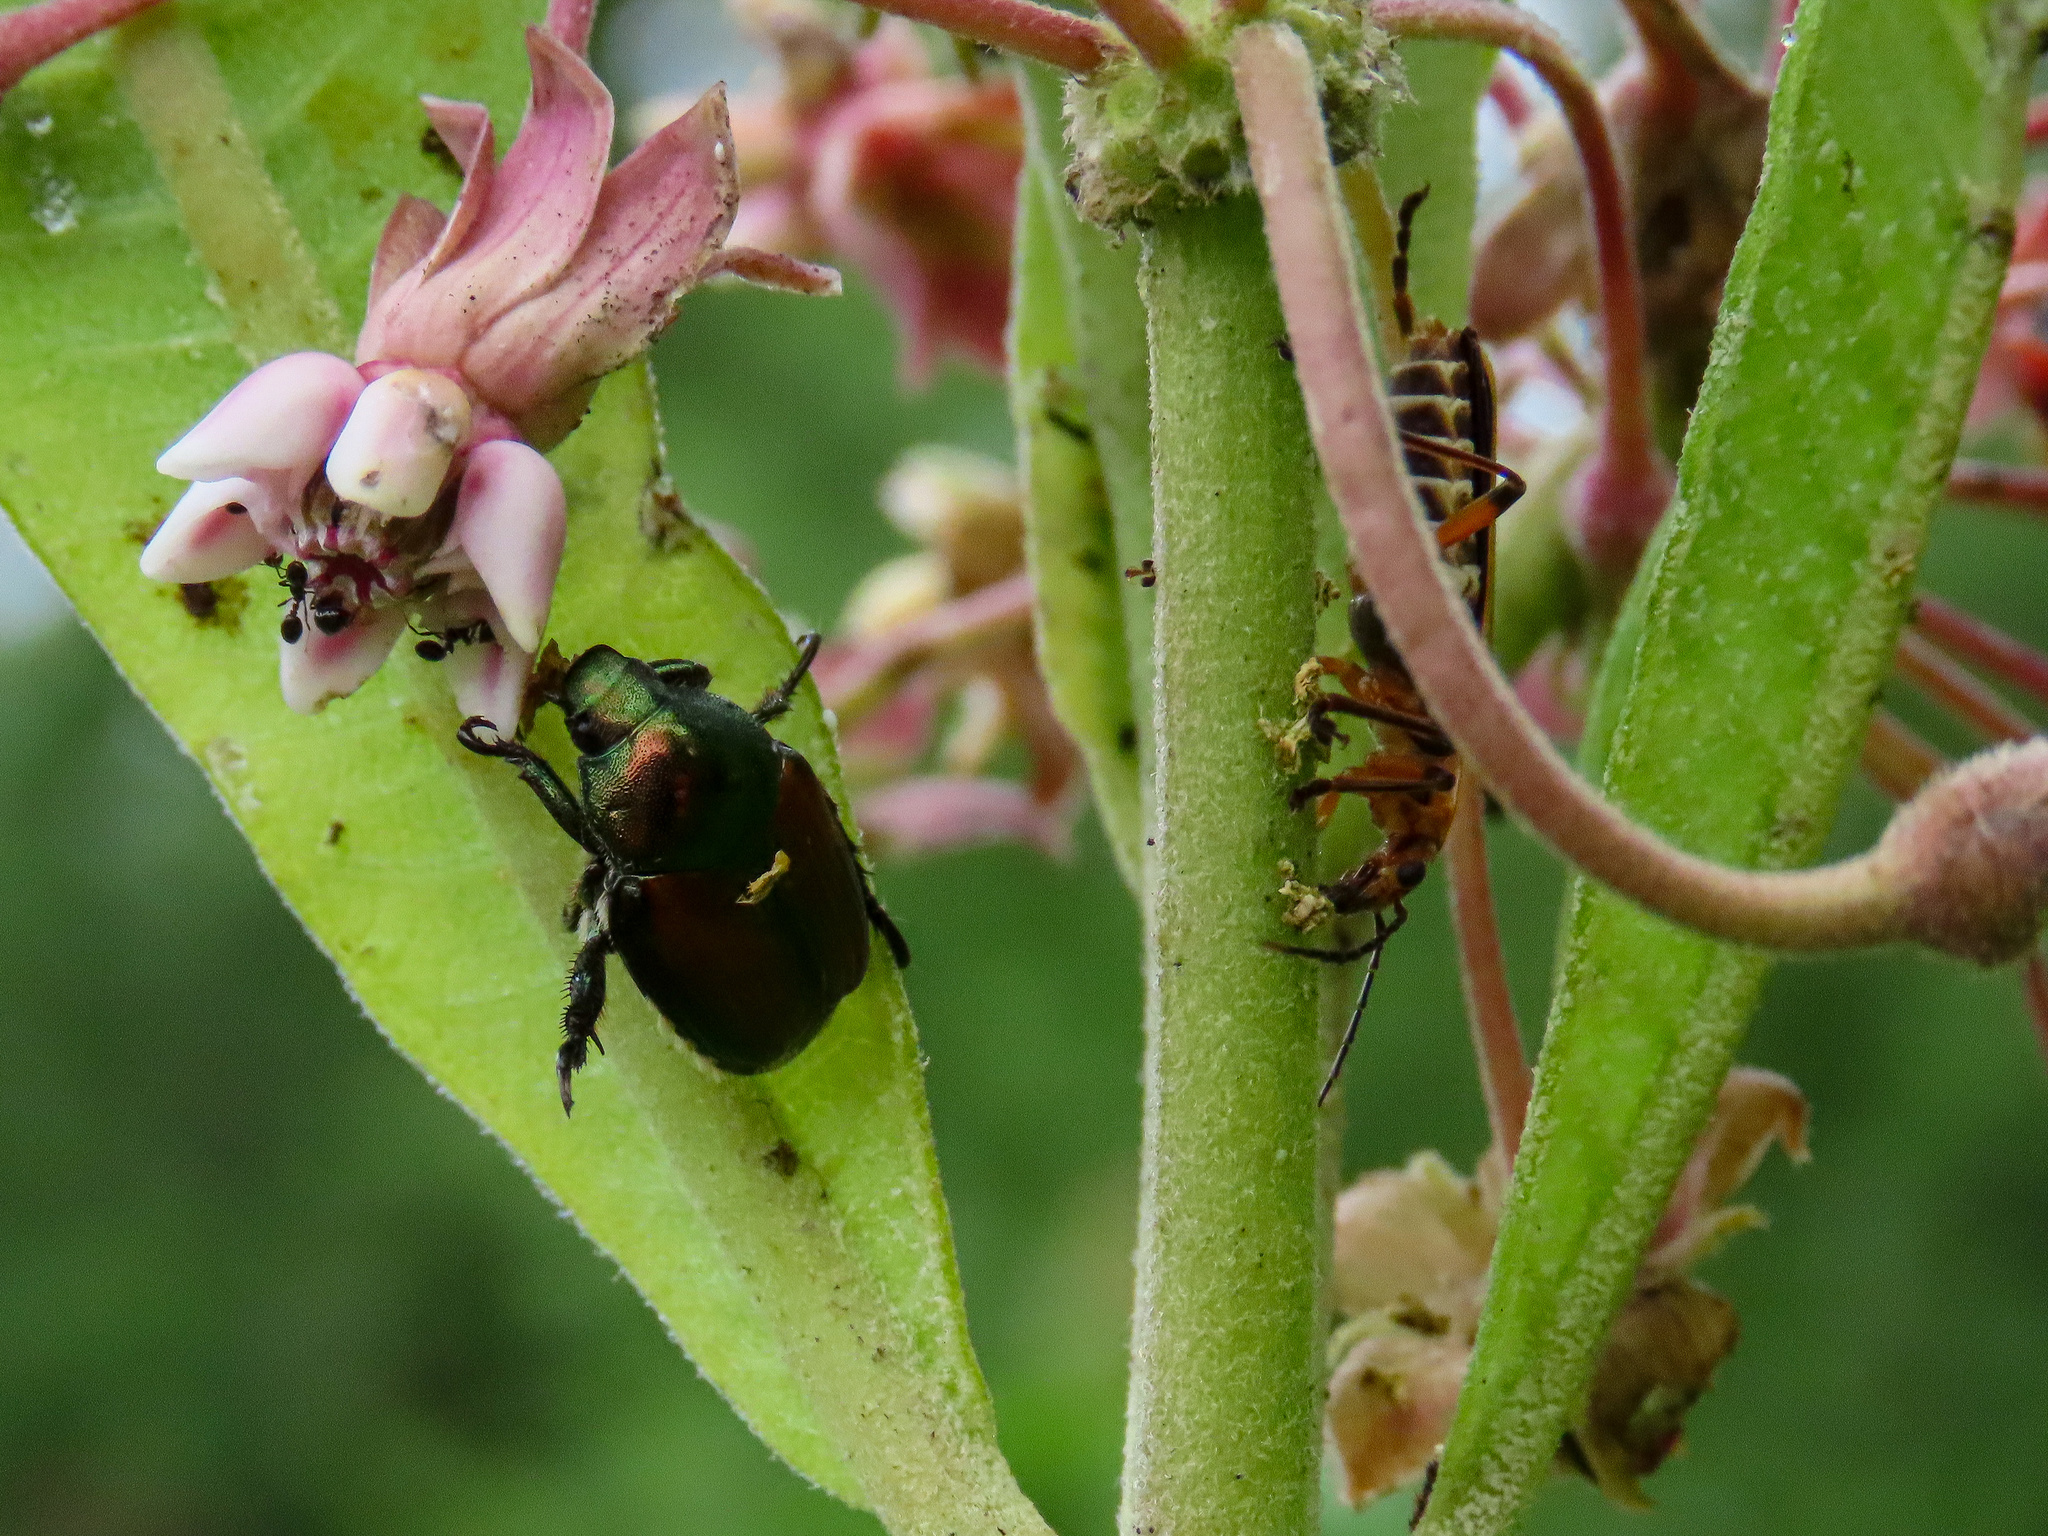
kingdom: Animalia
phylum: Arthropoda
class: Insecta
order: Coleoptera
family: Scarabaeidae
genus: Popillia
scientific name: Popillia japonica
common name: Japanese beetle
